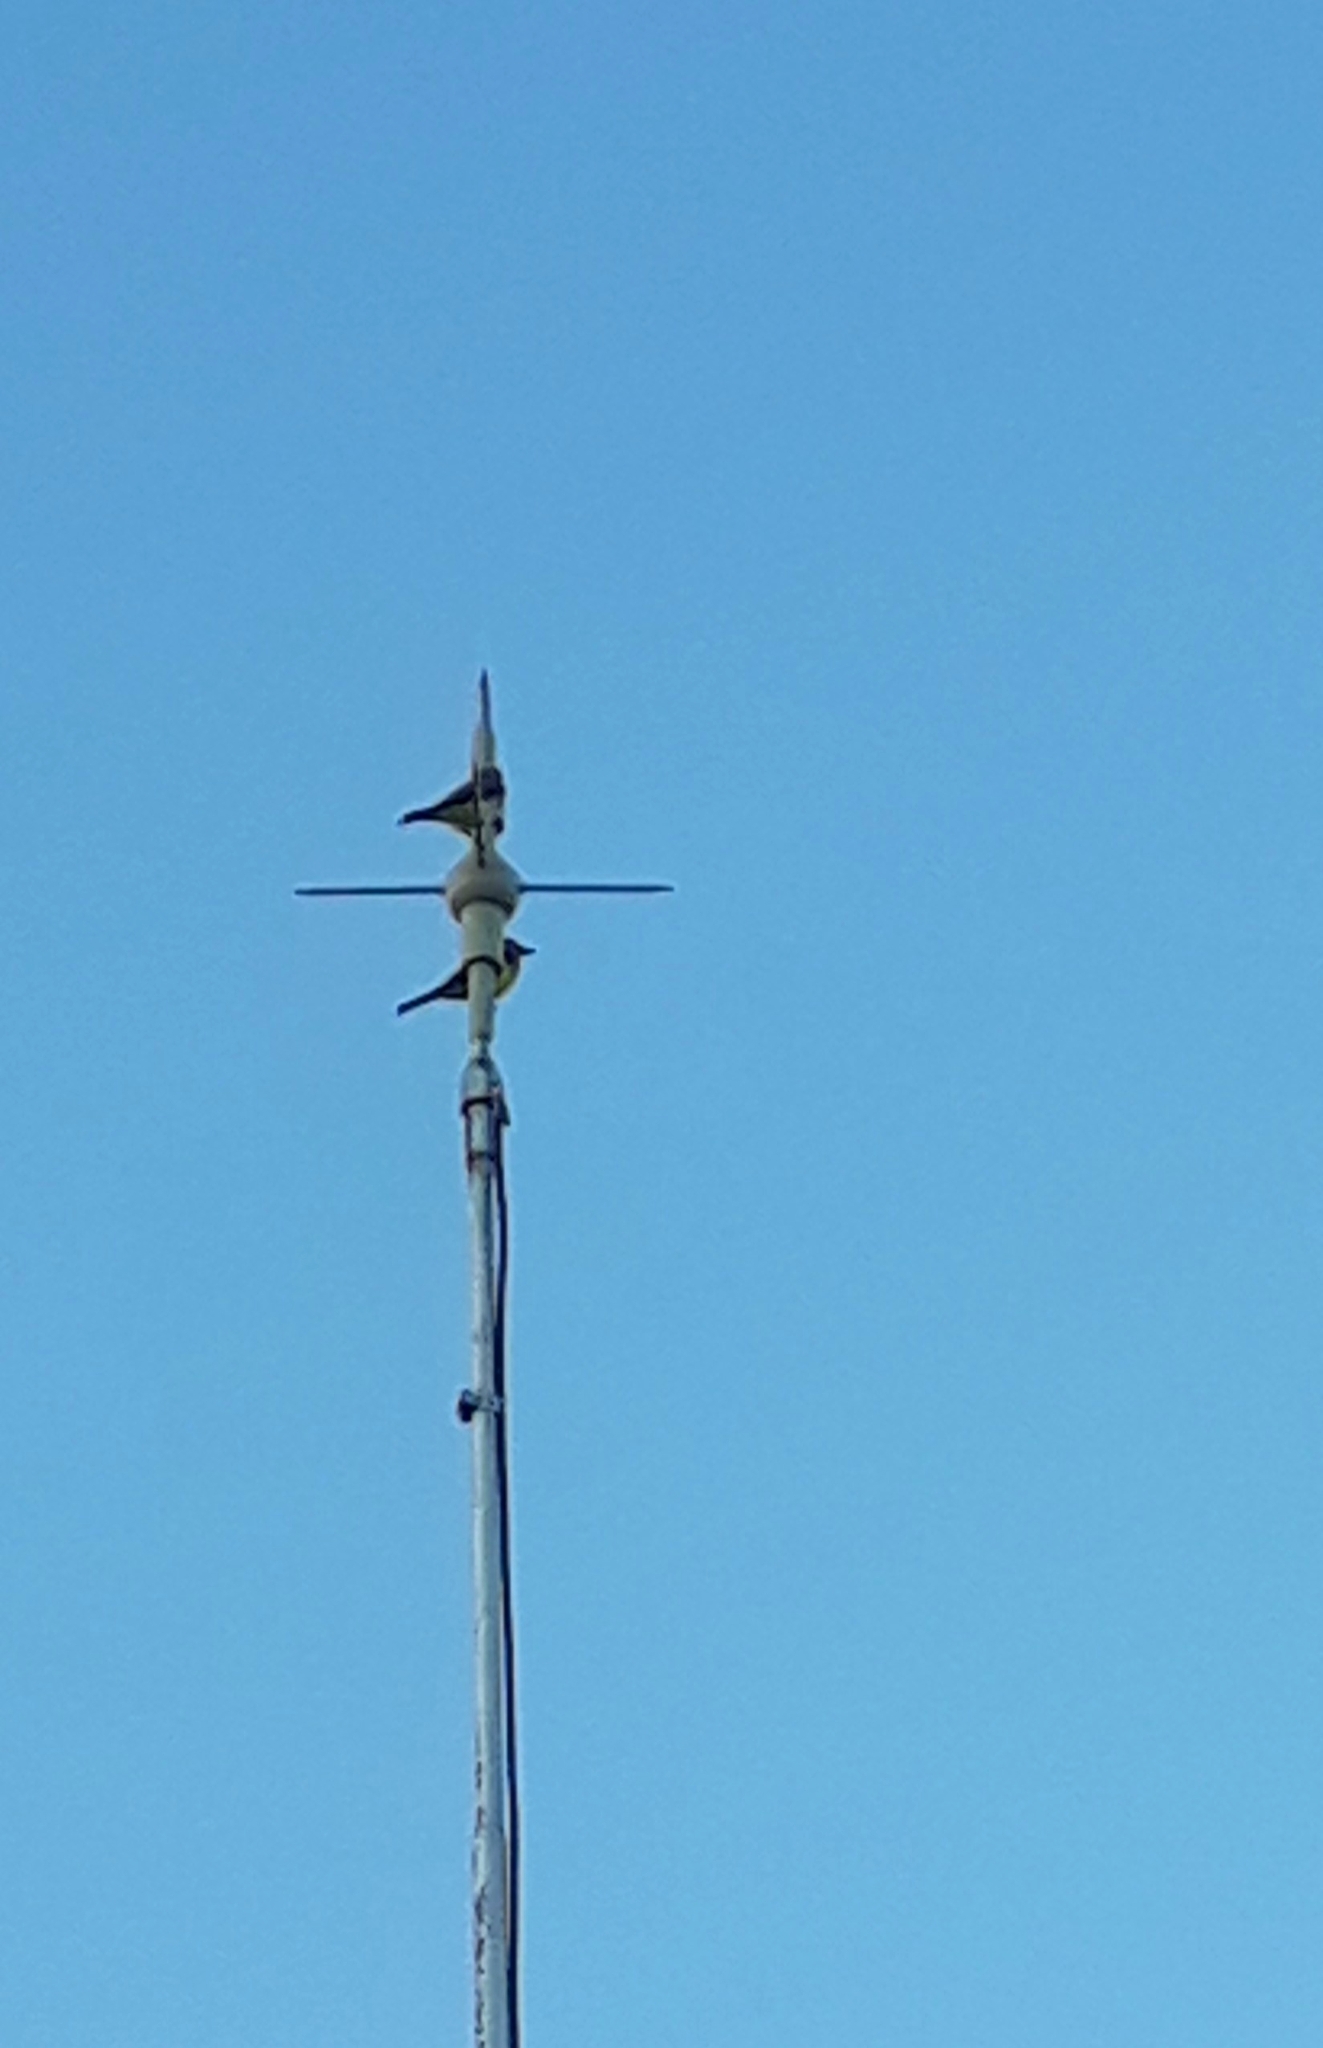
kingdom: Animalia
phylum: Chordata
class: Aves
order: Passeriformes
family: Tyrannidae
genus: Tyrannus
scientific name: Tyrannus melancholicus
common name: Tropical kingbird
